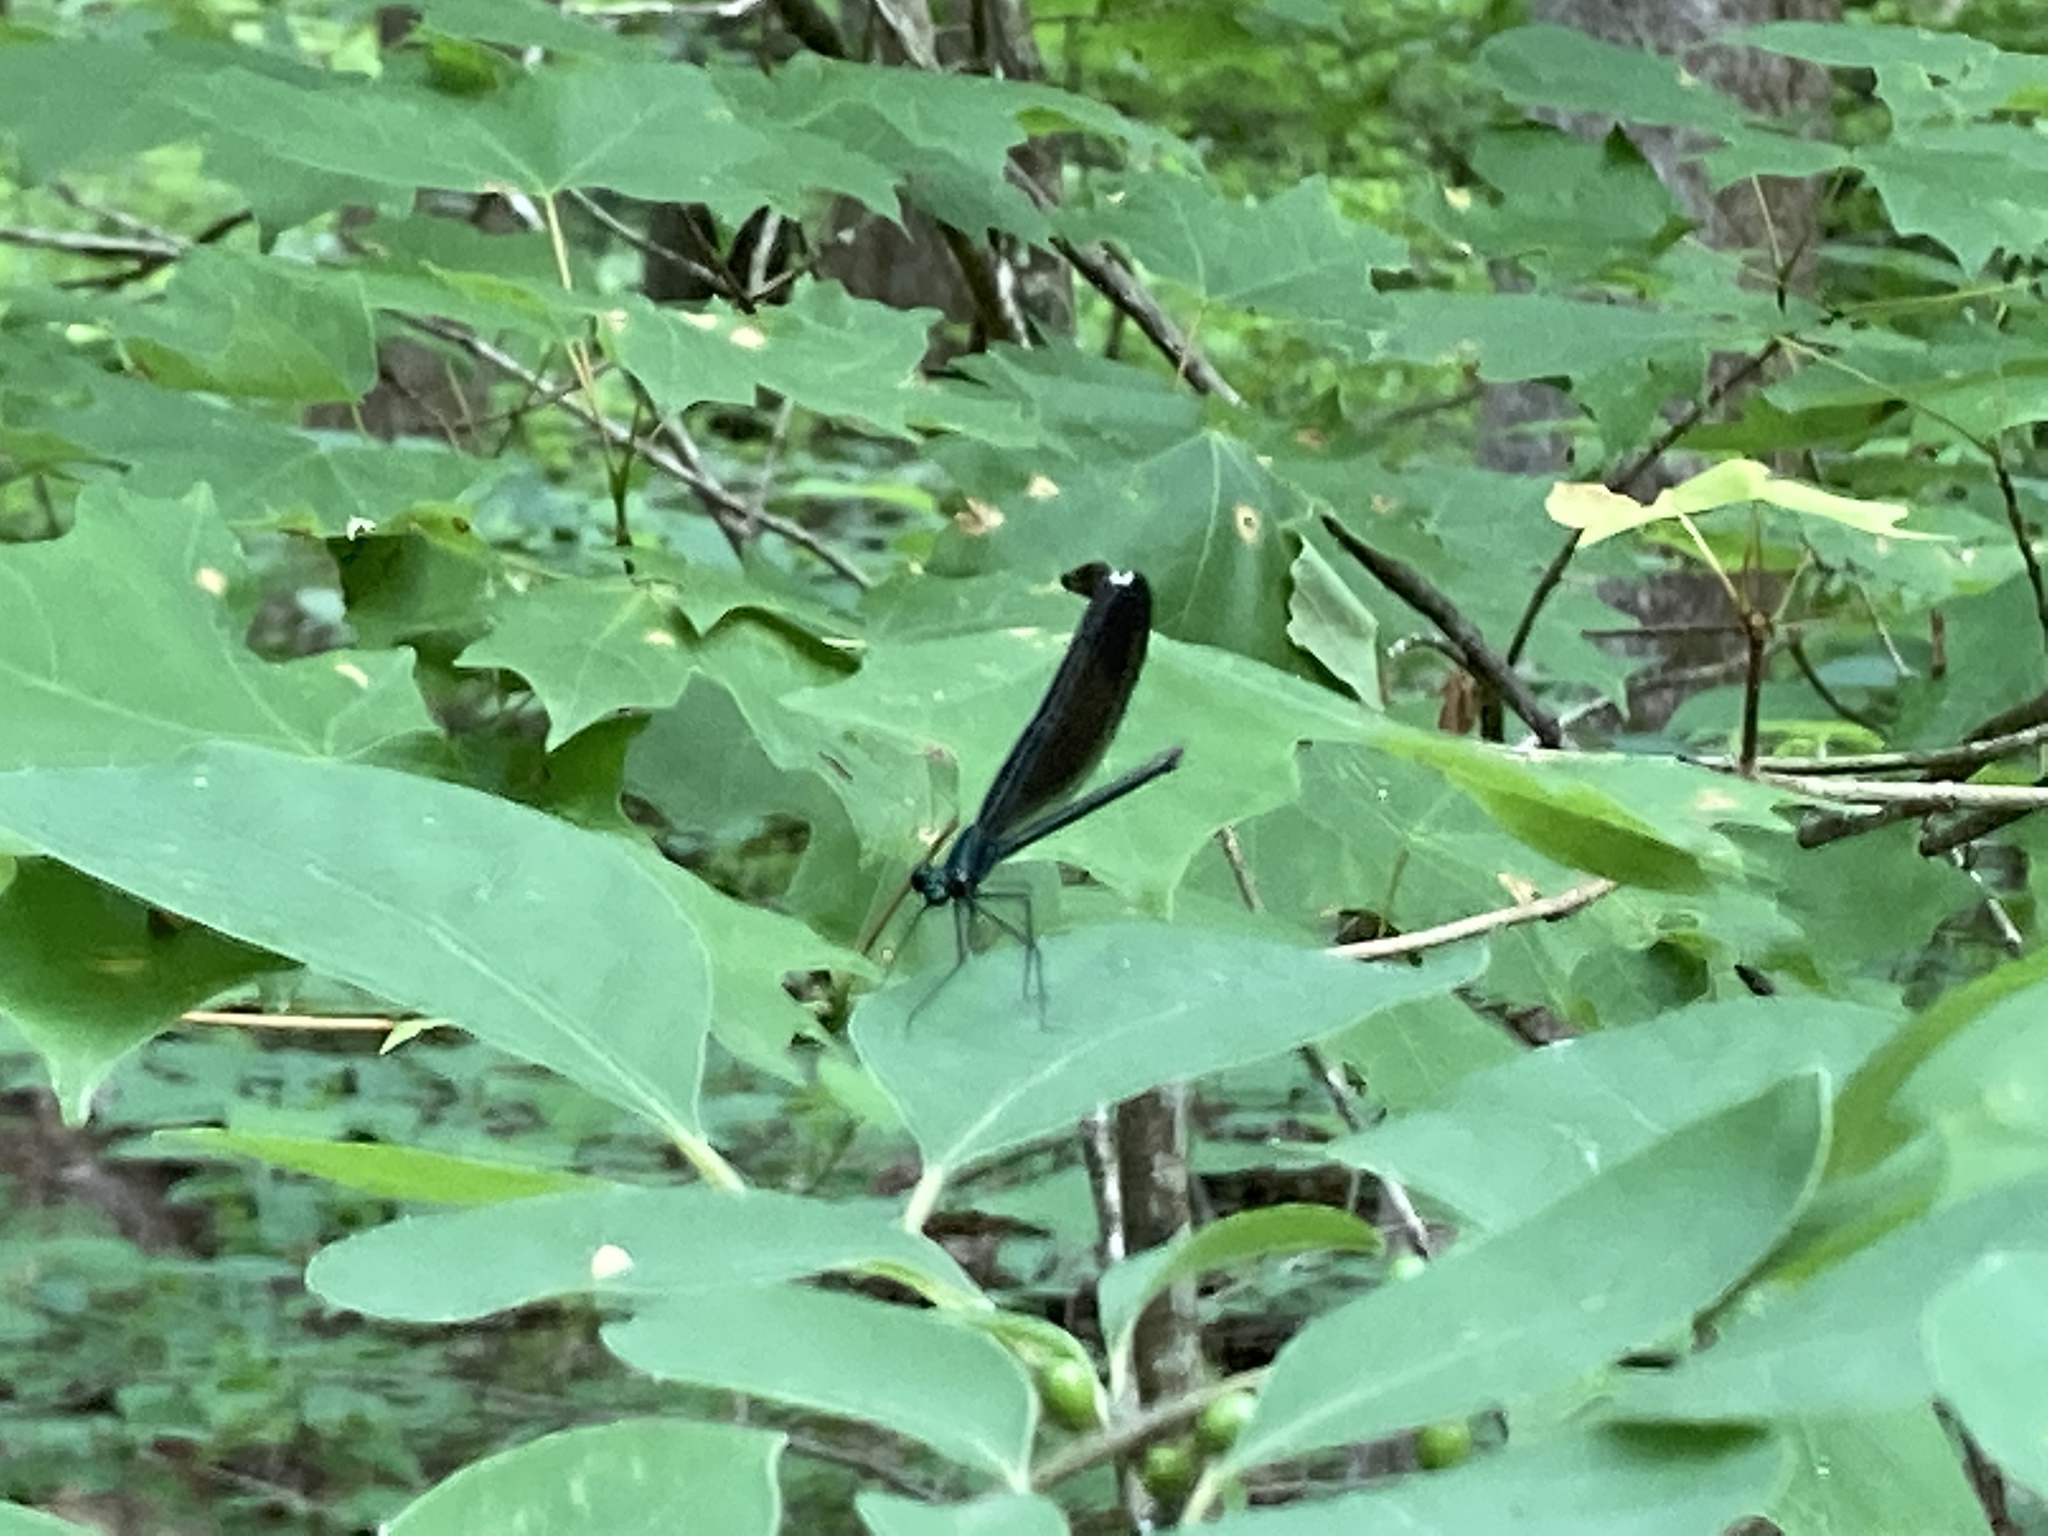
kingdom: Animalia
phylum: Arthropoda
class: Insecta
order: Odonata
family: Calopterygidae
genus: Calopteryx
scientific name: Calopteryx maculata
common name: Ebony jewelwing
